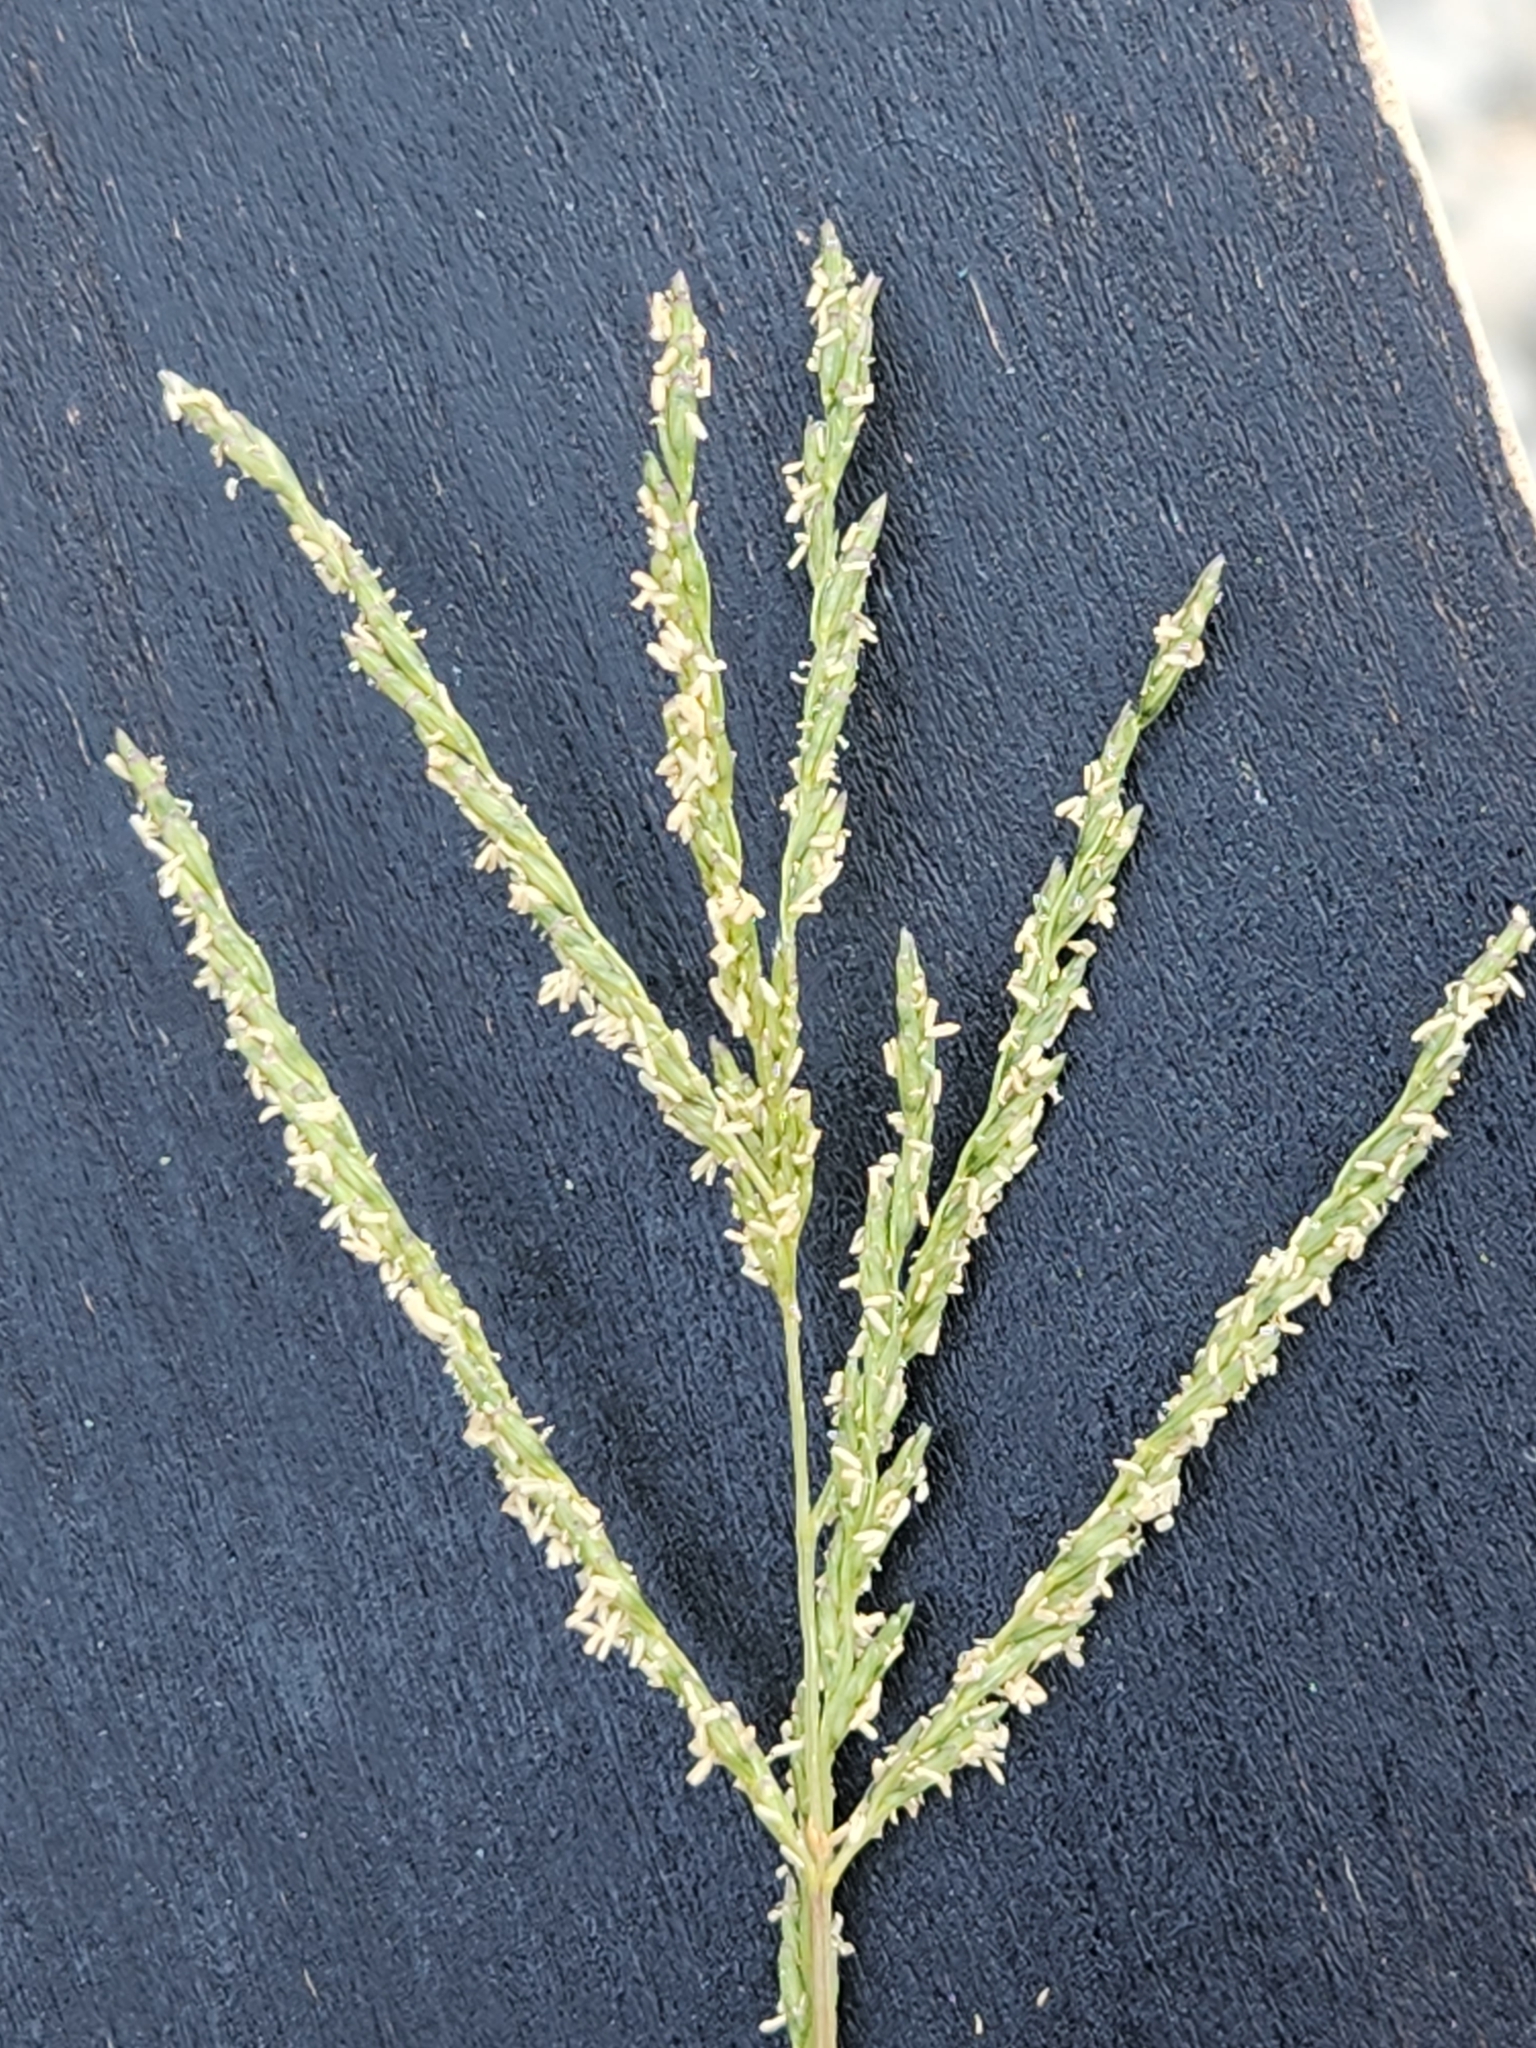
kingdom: Plantae
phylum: Tracheophyta
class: Liliopsida
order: Poales
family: Poaceae
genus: Disakisperma
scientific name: Disakisperma dubium
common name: Green sprangletop
